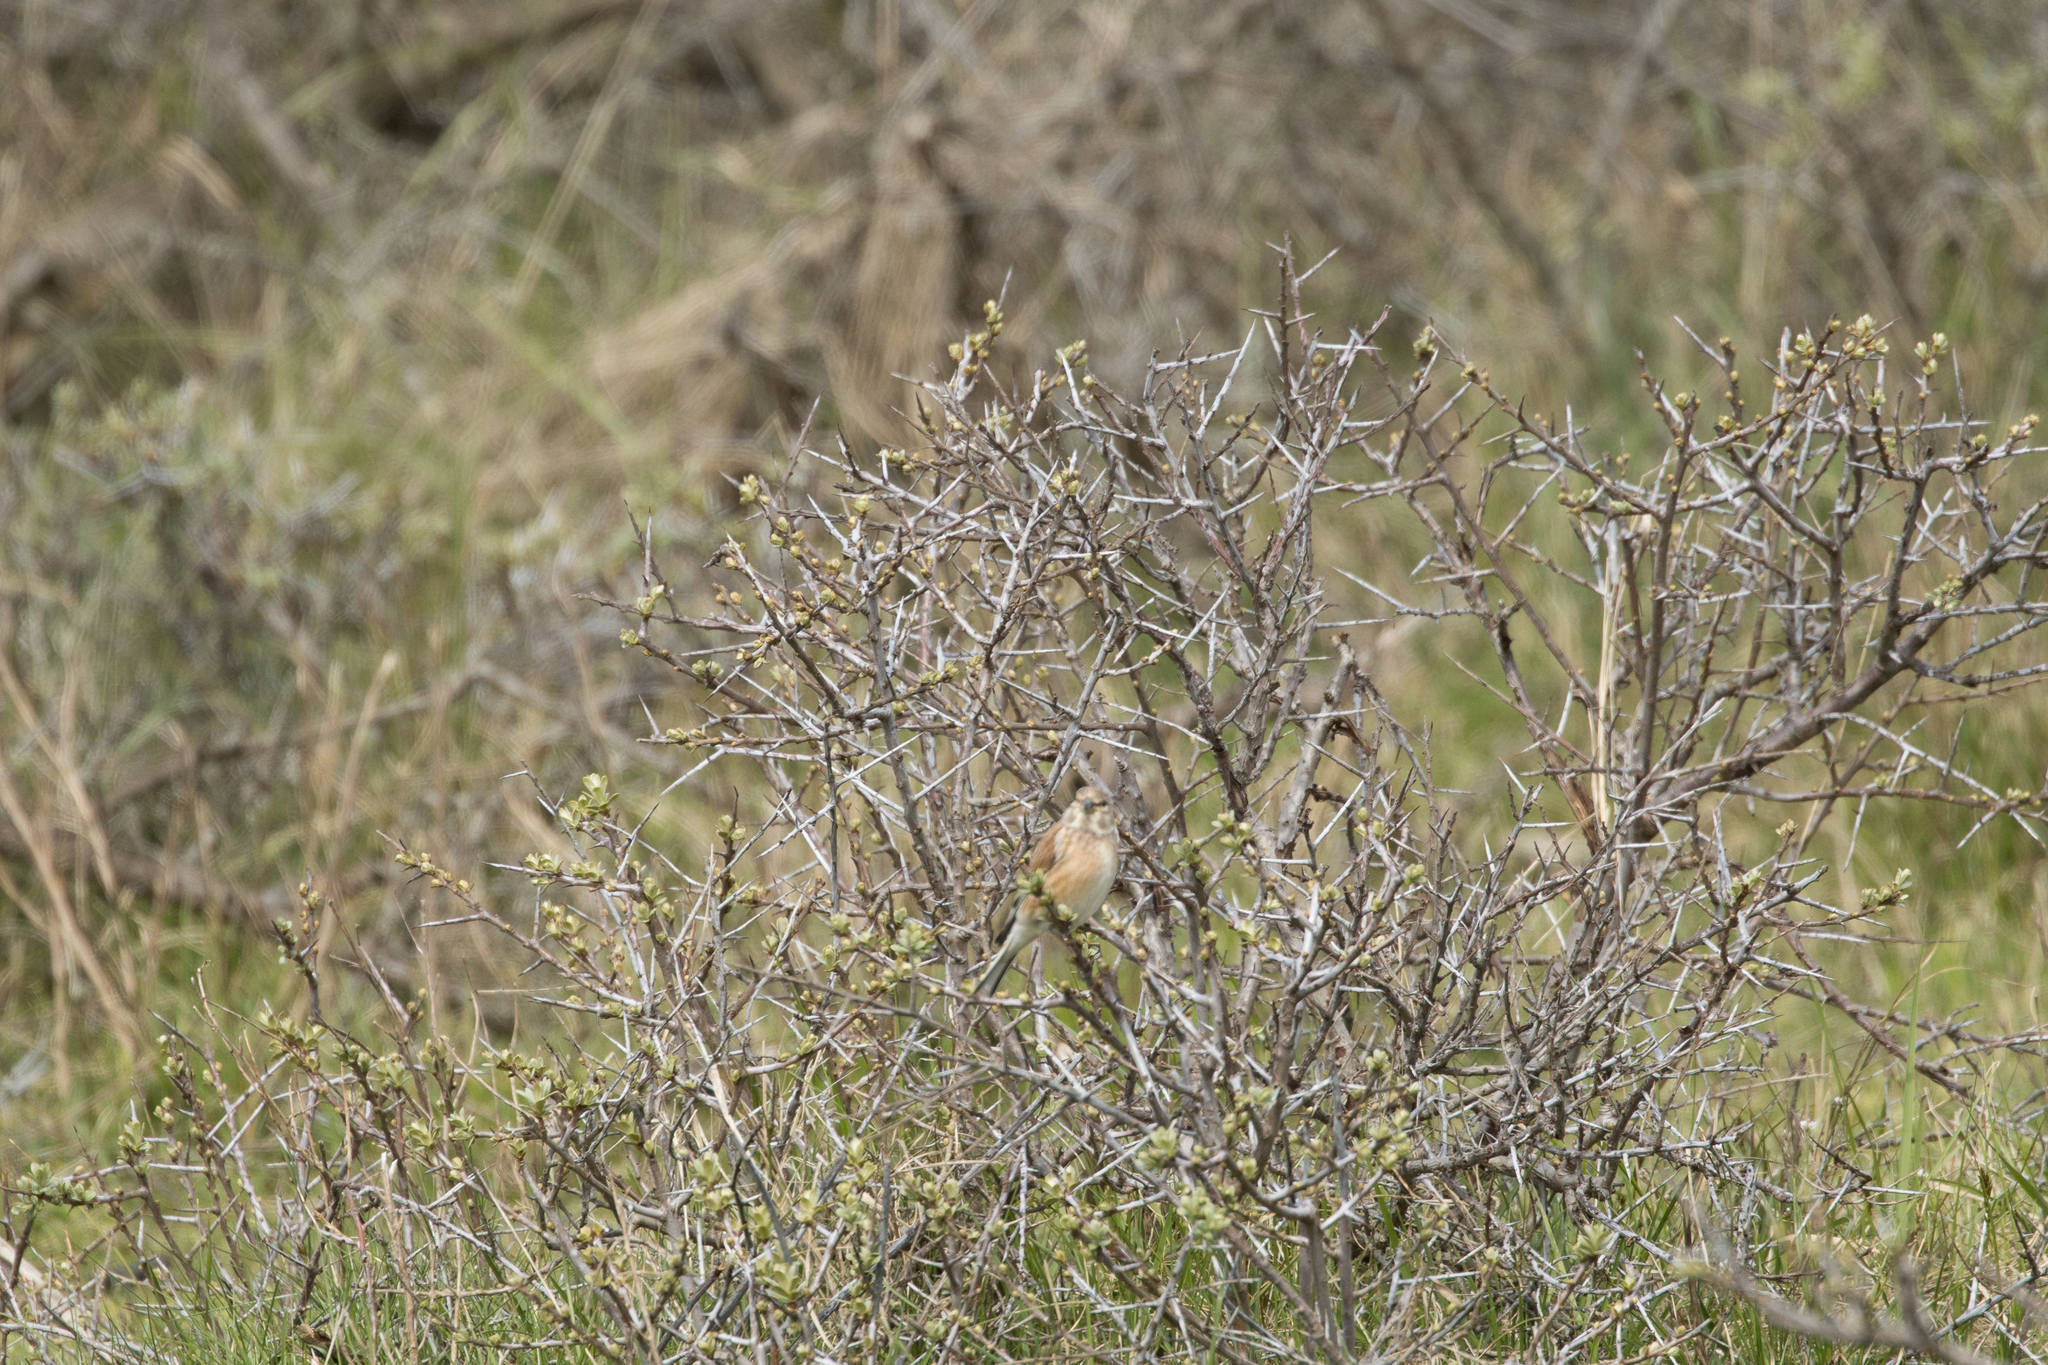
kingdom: Animalia
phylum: Chordata
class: Aves
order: Passeriformes
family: Fringillidae
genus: Linaria
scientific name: Linaria cannabina
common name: Common linnet
